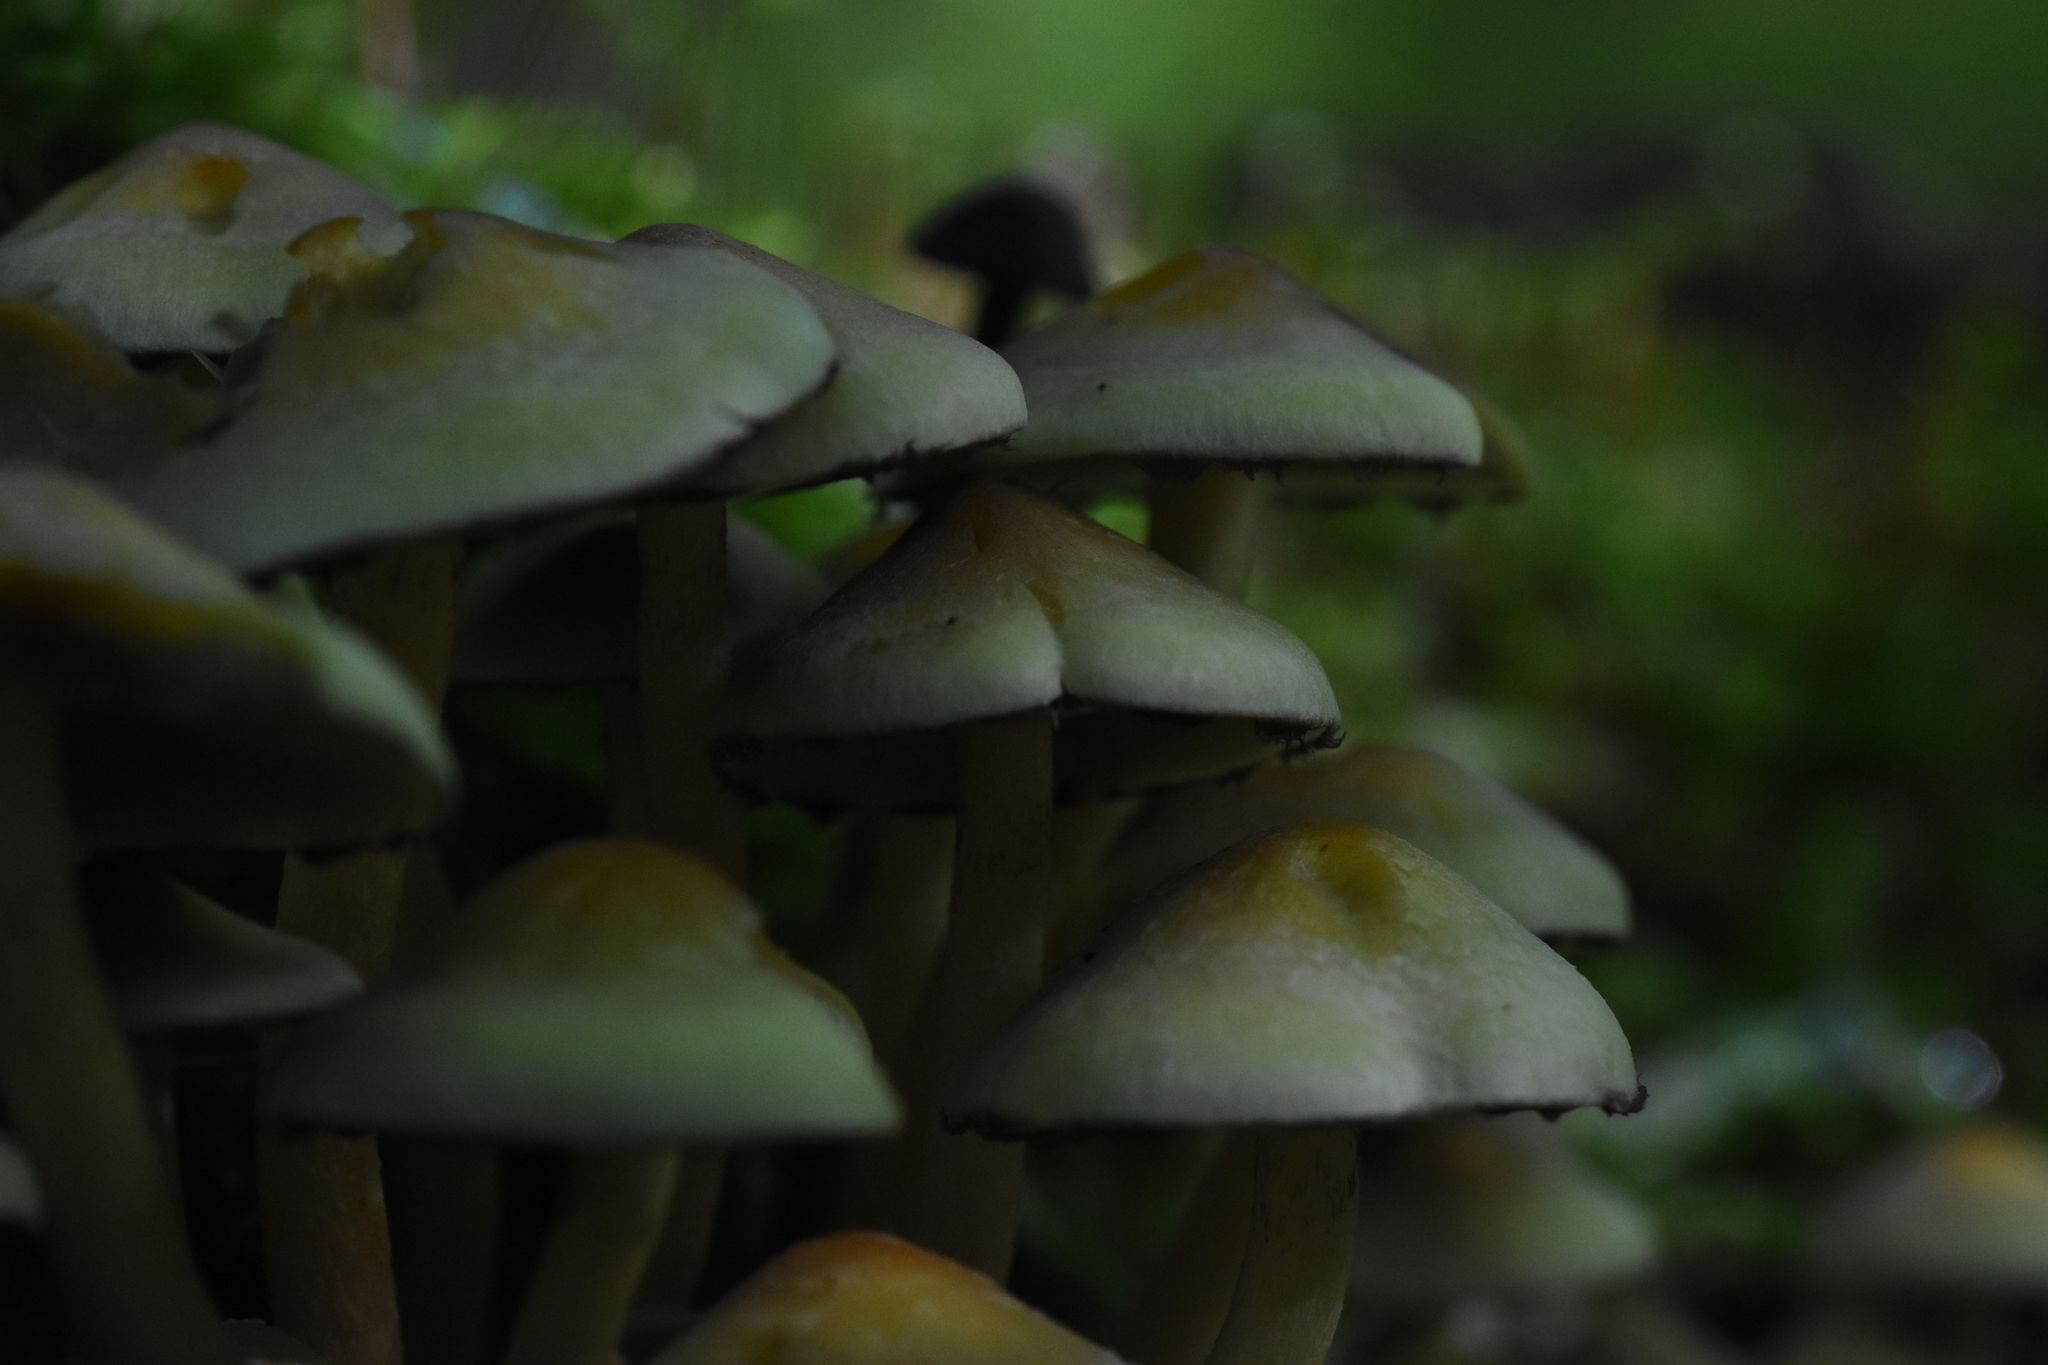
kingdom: Fungi
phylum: Basidiomycota
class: Agaricomycetes
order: Agaricales
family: Strophariaceae
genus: Hypholoma
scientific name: Hypholoma fasciculare
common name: Sulphur tuft
